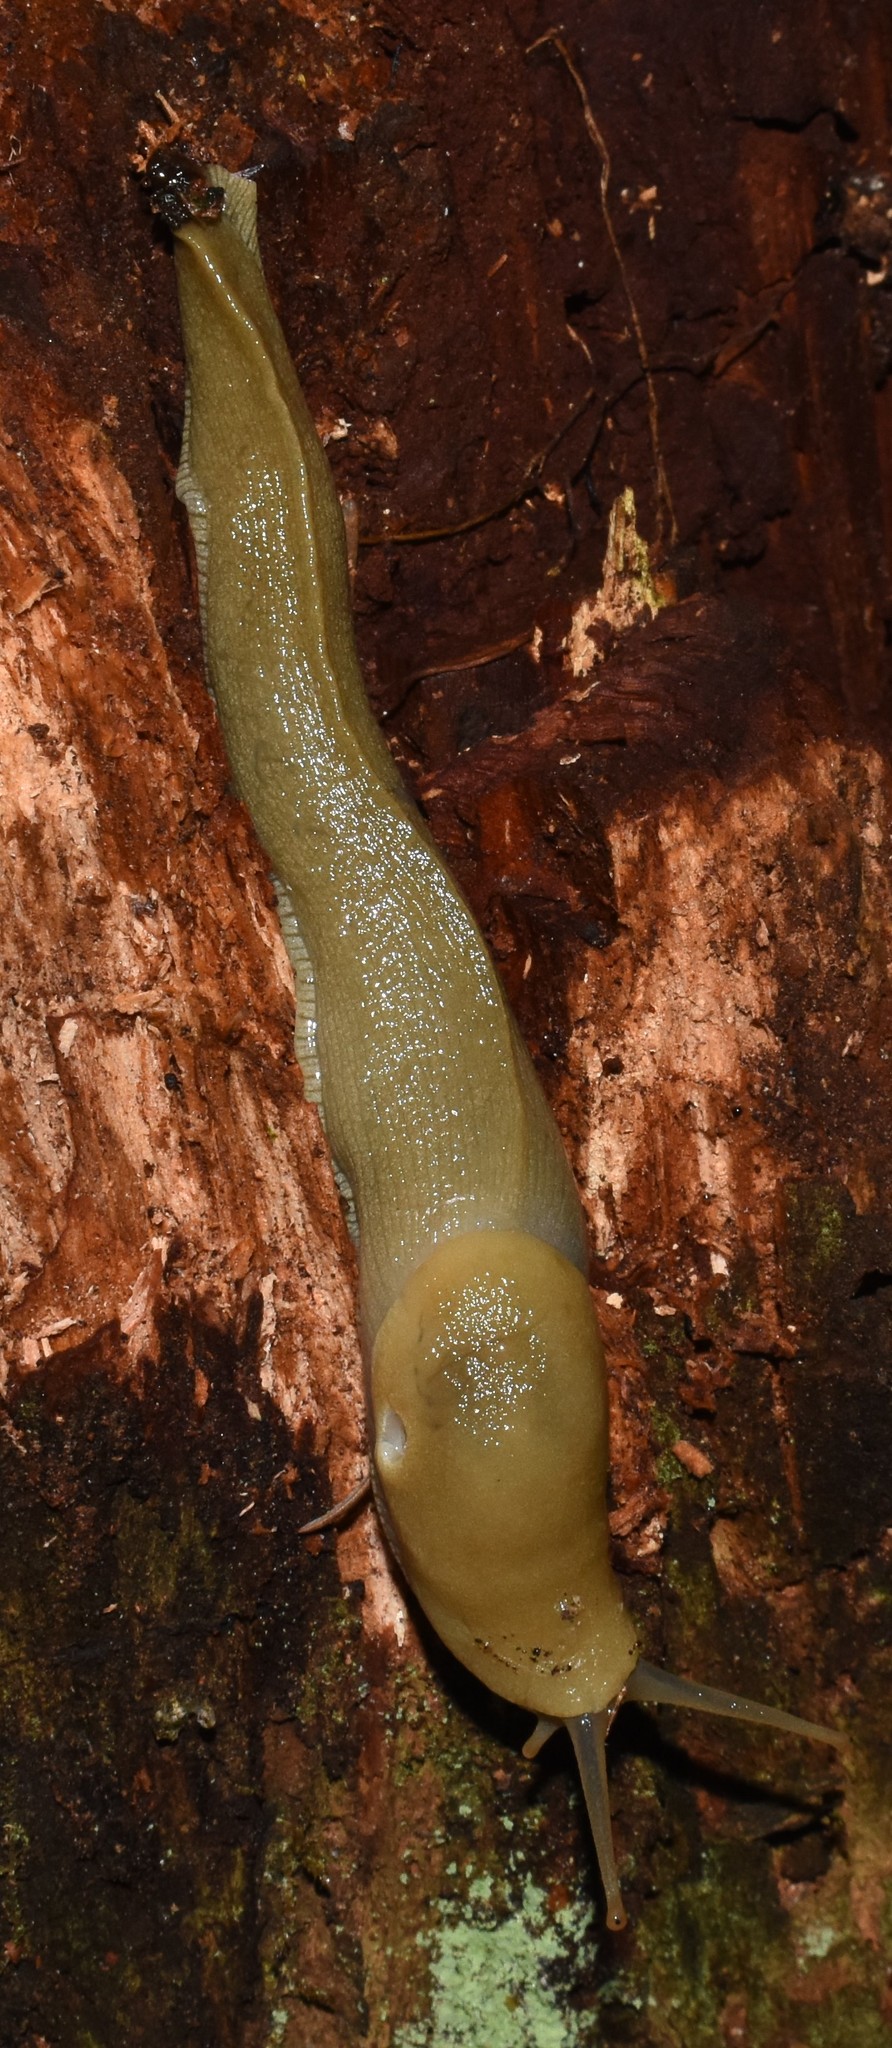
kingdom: Animalia
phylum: Mollusca
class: Gastropoda
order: Stylommatophora
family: Ariolimacidae
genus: Ariolimax
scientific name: Ariolimax columbianus
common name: Pacific banana slug
